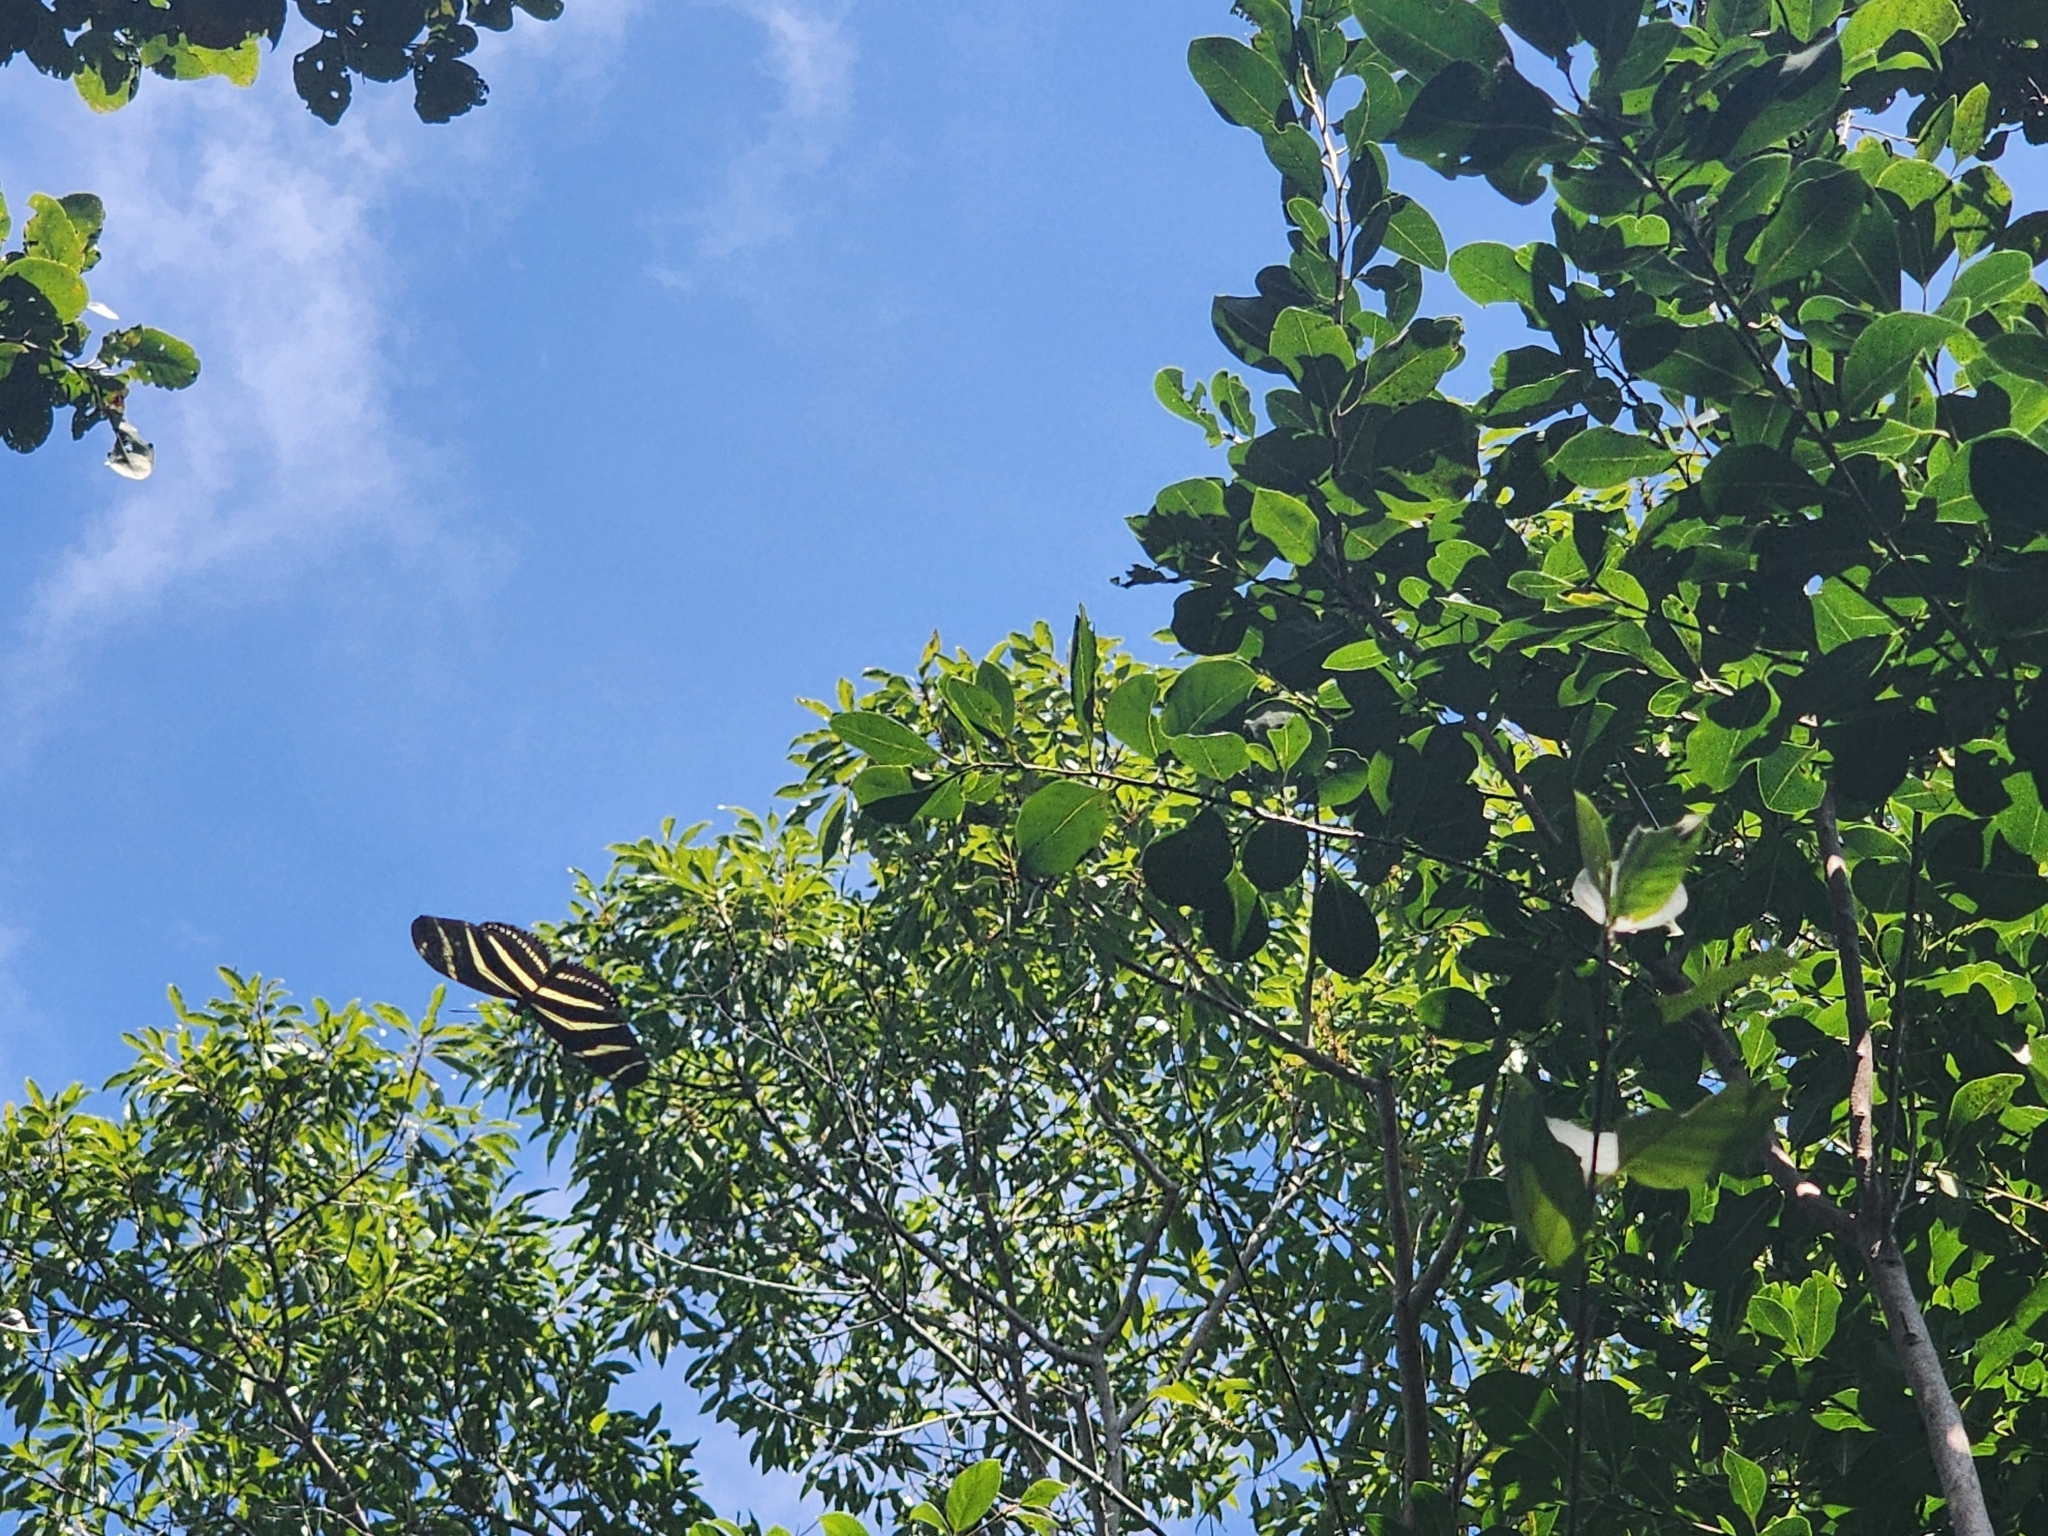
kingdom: Animalia
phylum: Arthropoda
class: Insecta
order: Lepidoptera
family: Nymphalidae
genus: Heliconius
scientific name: Heliconius charithonia
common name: Zebra long wing
